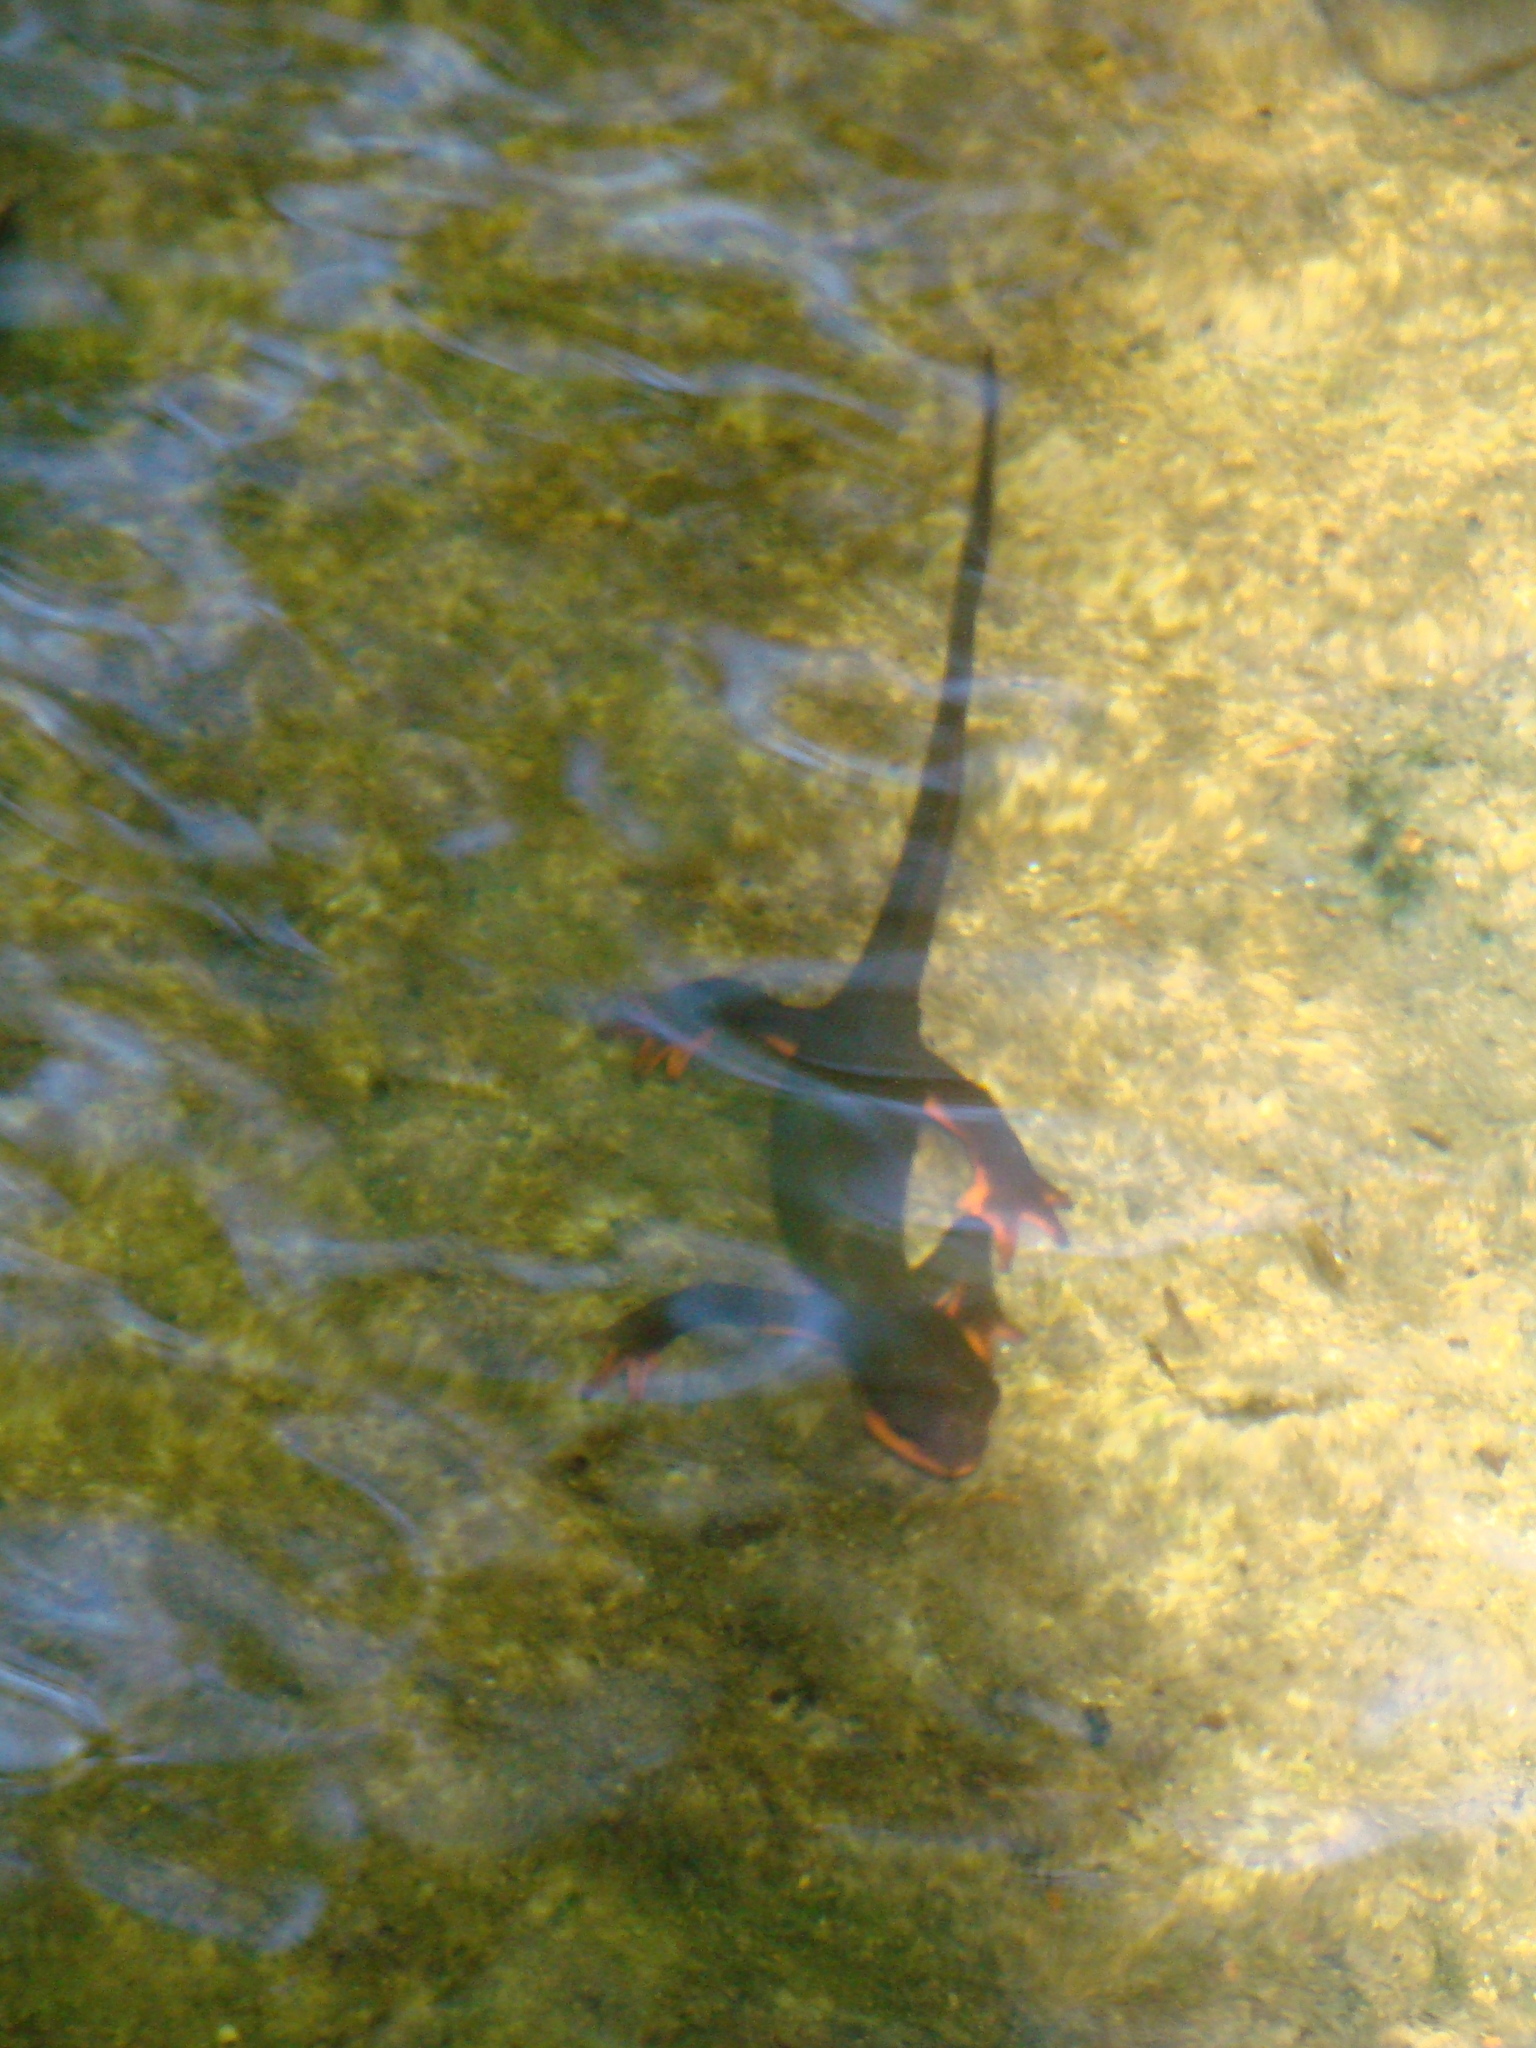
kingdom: Animalia
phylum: Chordata
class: Amphibia
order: Caudata
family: Salamandridae
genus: Taricha
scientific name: Taricha rivularis
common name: Red-bellied newt
